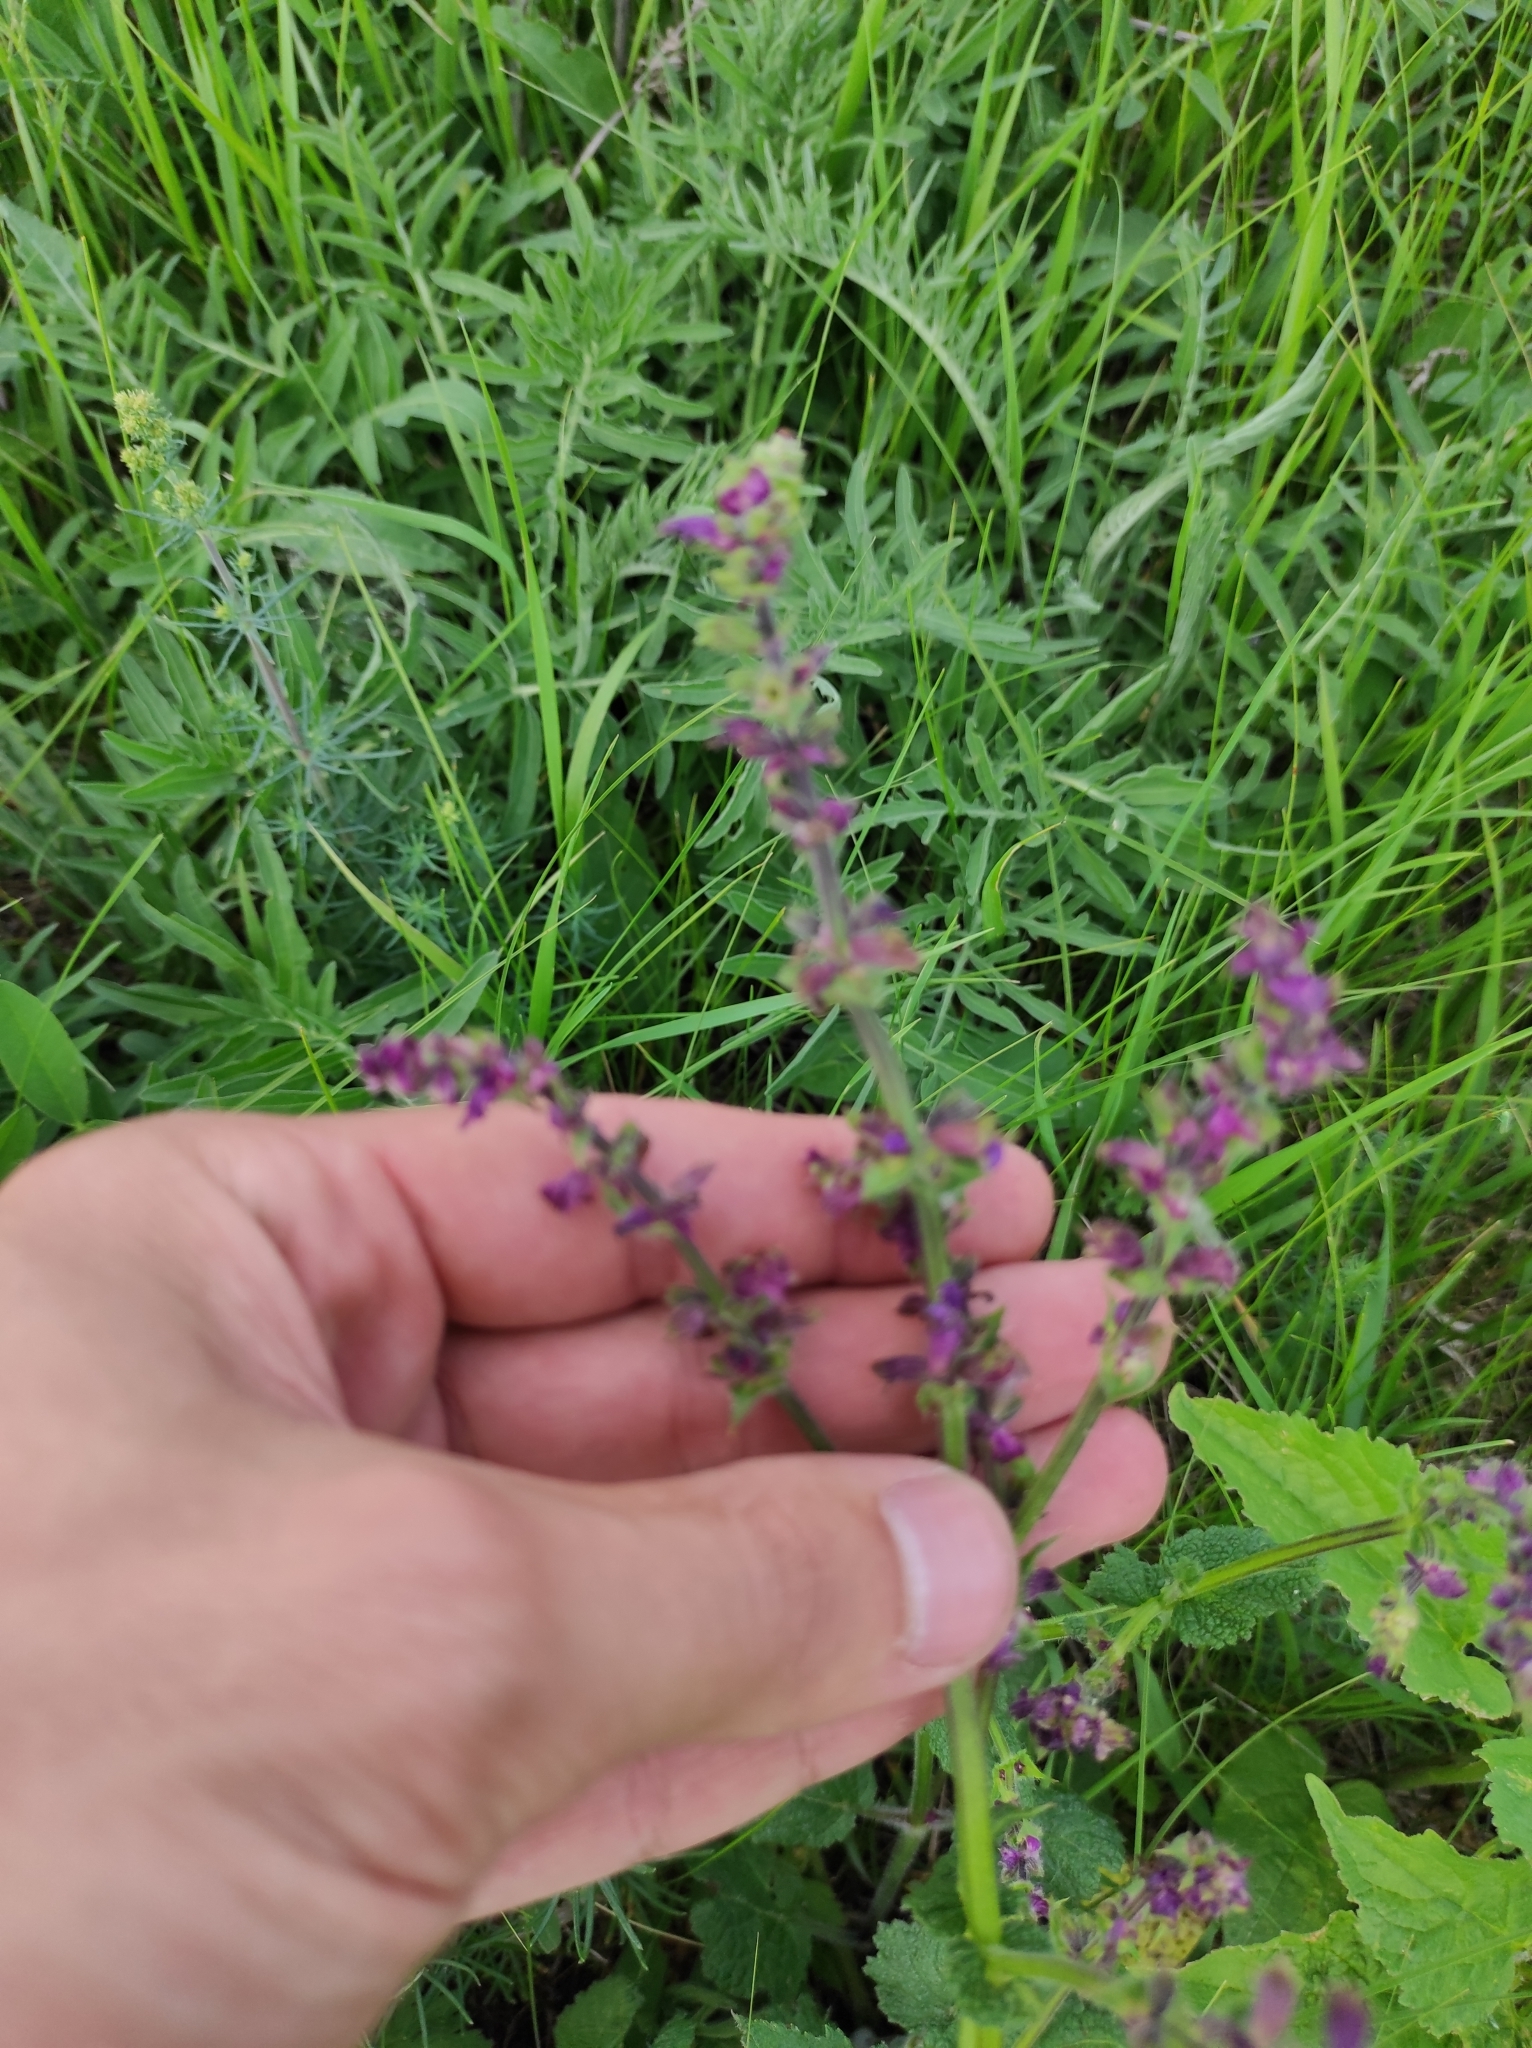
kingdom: Plantae
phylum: Tracheophyta
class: Magnoliopsida
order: Lamiales
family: Lamiaceae
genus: Salvia
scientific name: Salvia pratensis
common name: Meadow sage
